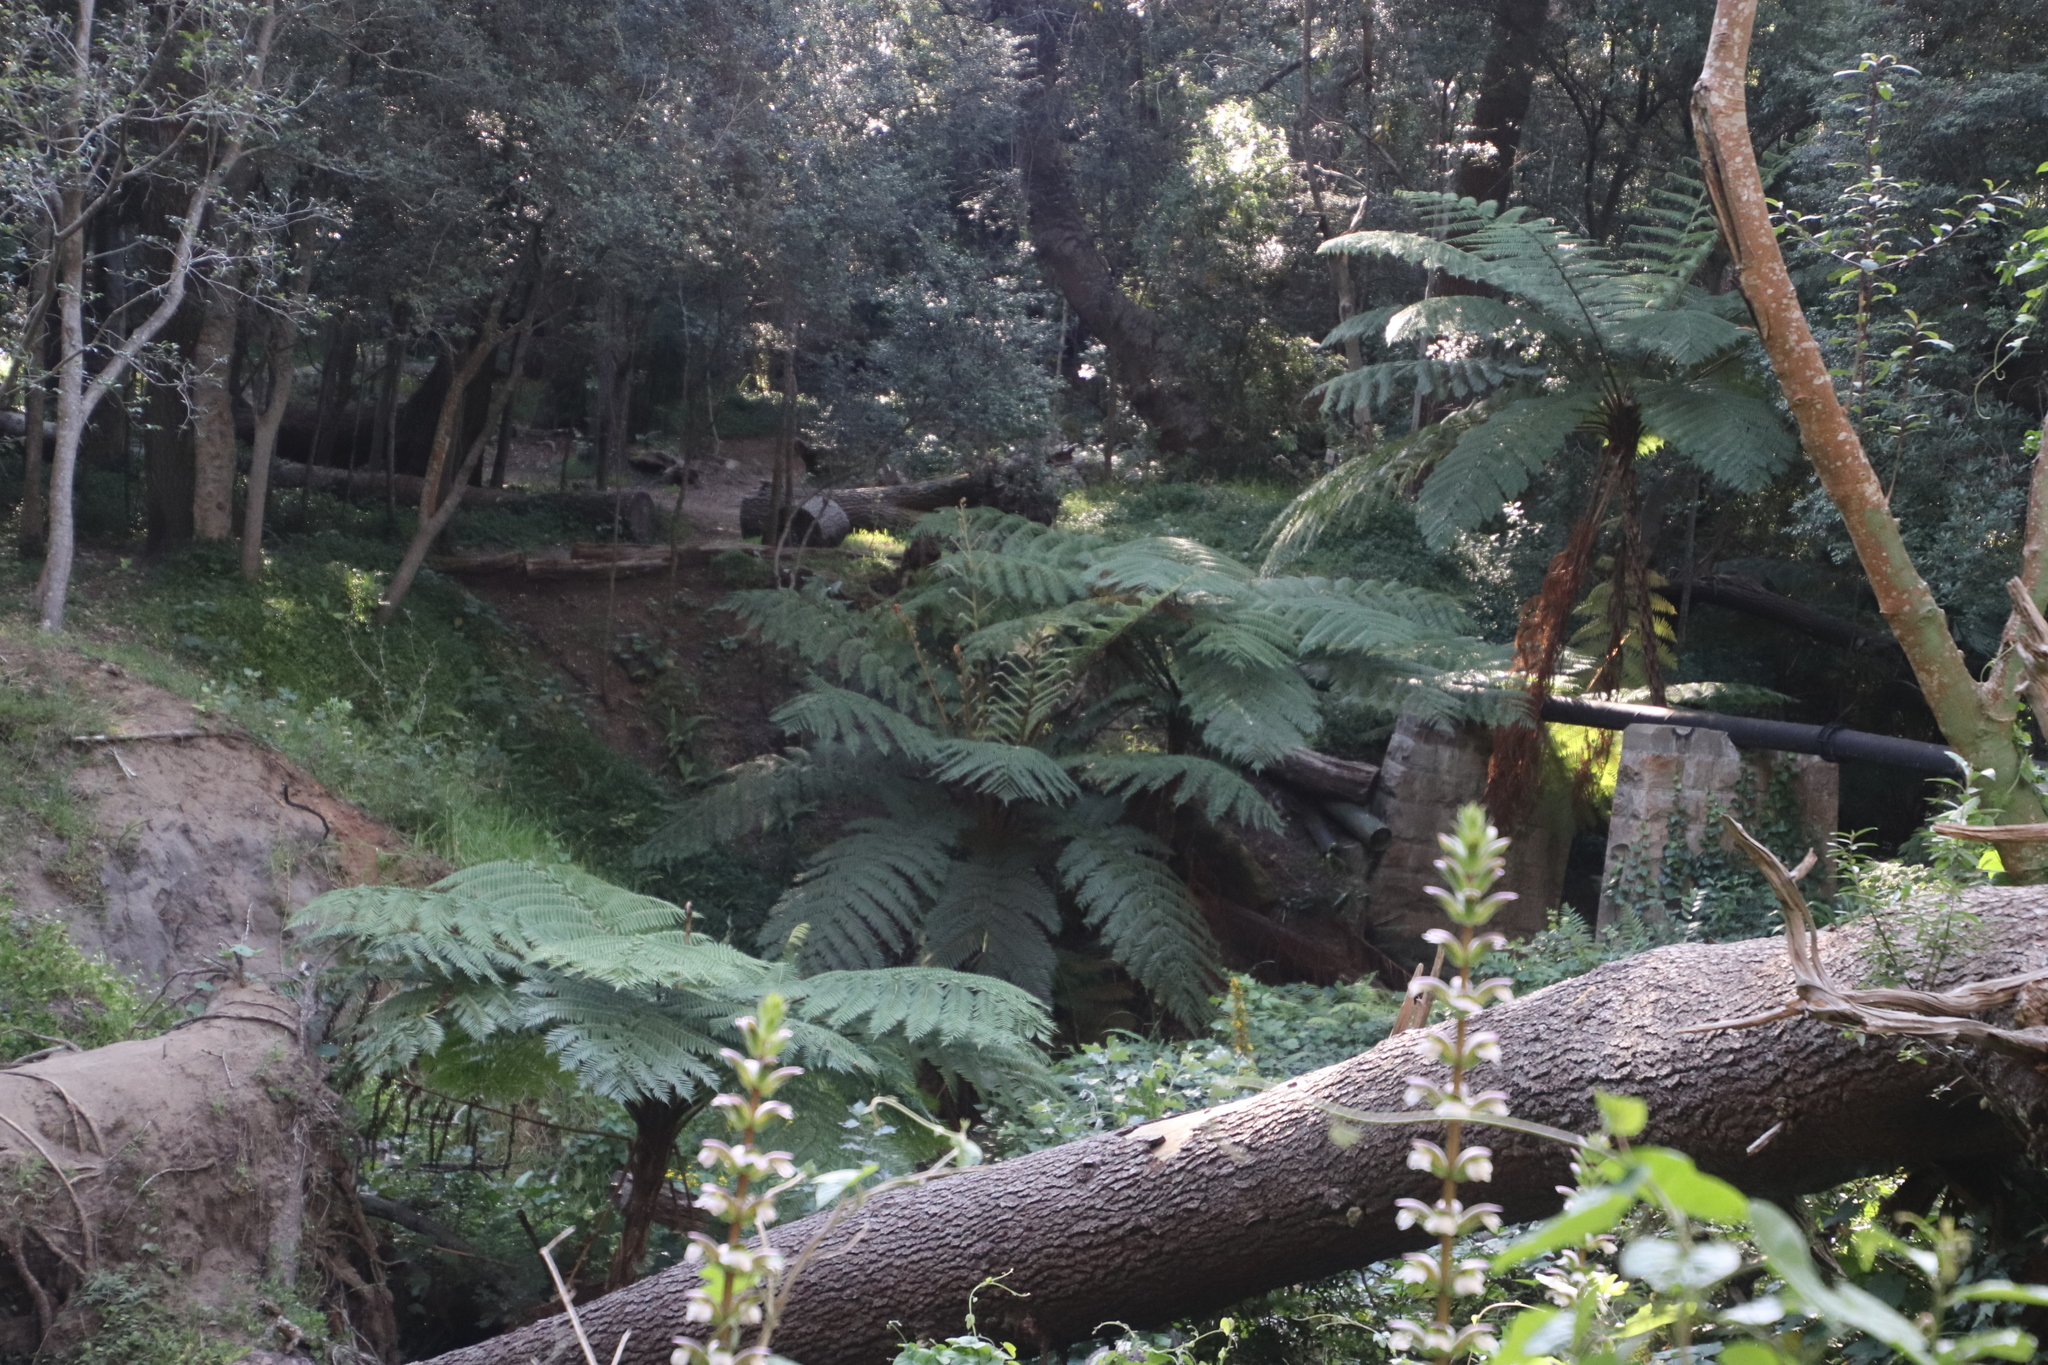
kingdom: Plantae
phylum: Tracheophyta
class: Polypodiopsida
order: Cyatheales
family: Cyatheaceae
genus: Sphaeropteris
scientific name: Sphaeropteris cooperi
